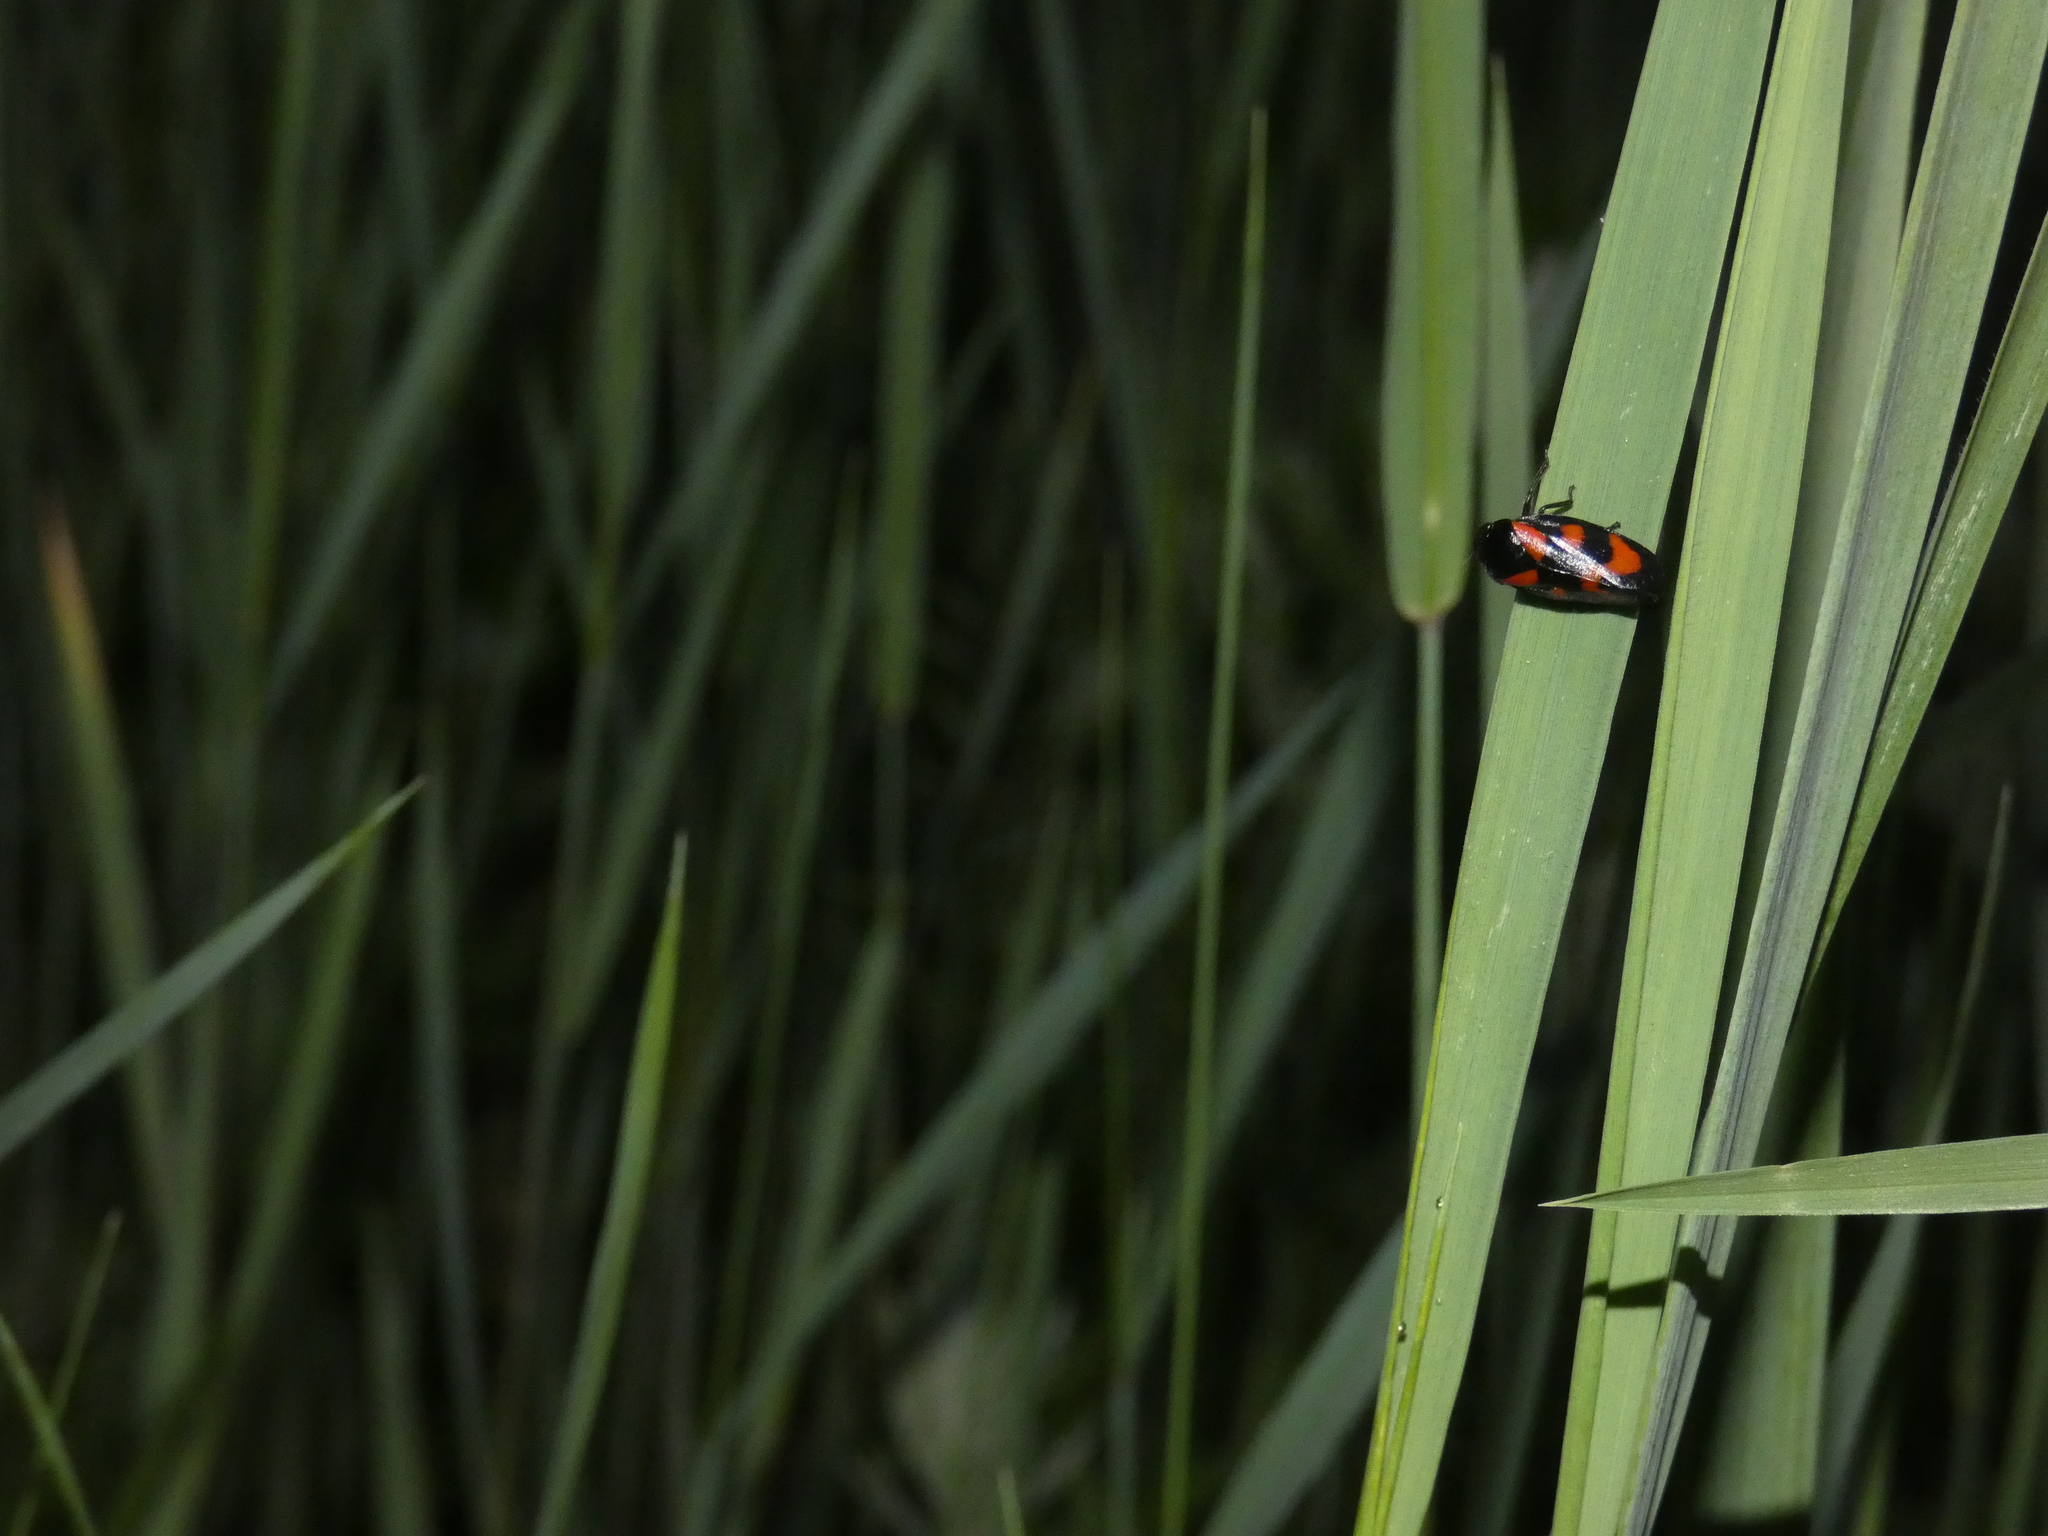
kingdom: Animalia
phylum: Arthropoda
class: Insecta
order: Hemiptera
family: Cercopidae
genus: Cercopis
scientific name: Cercopis vulnerata
